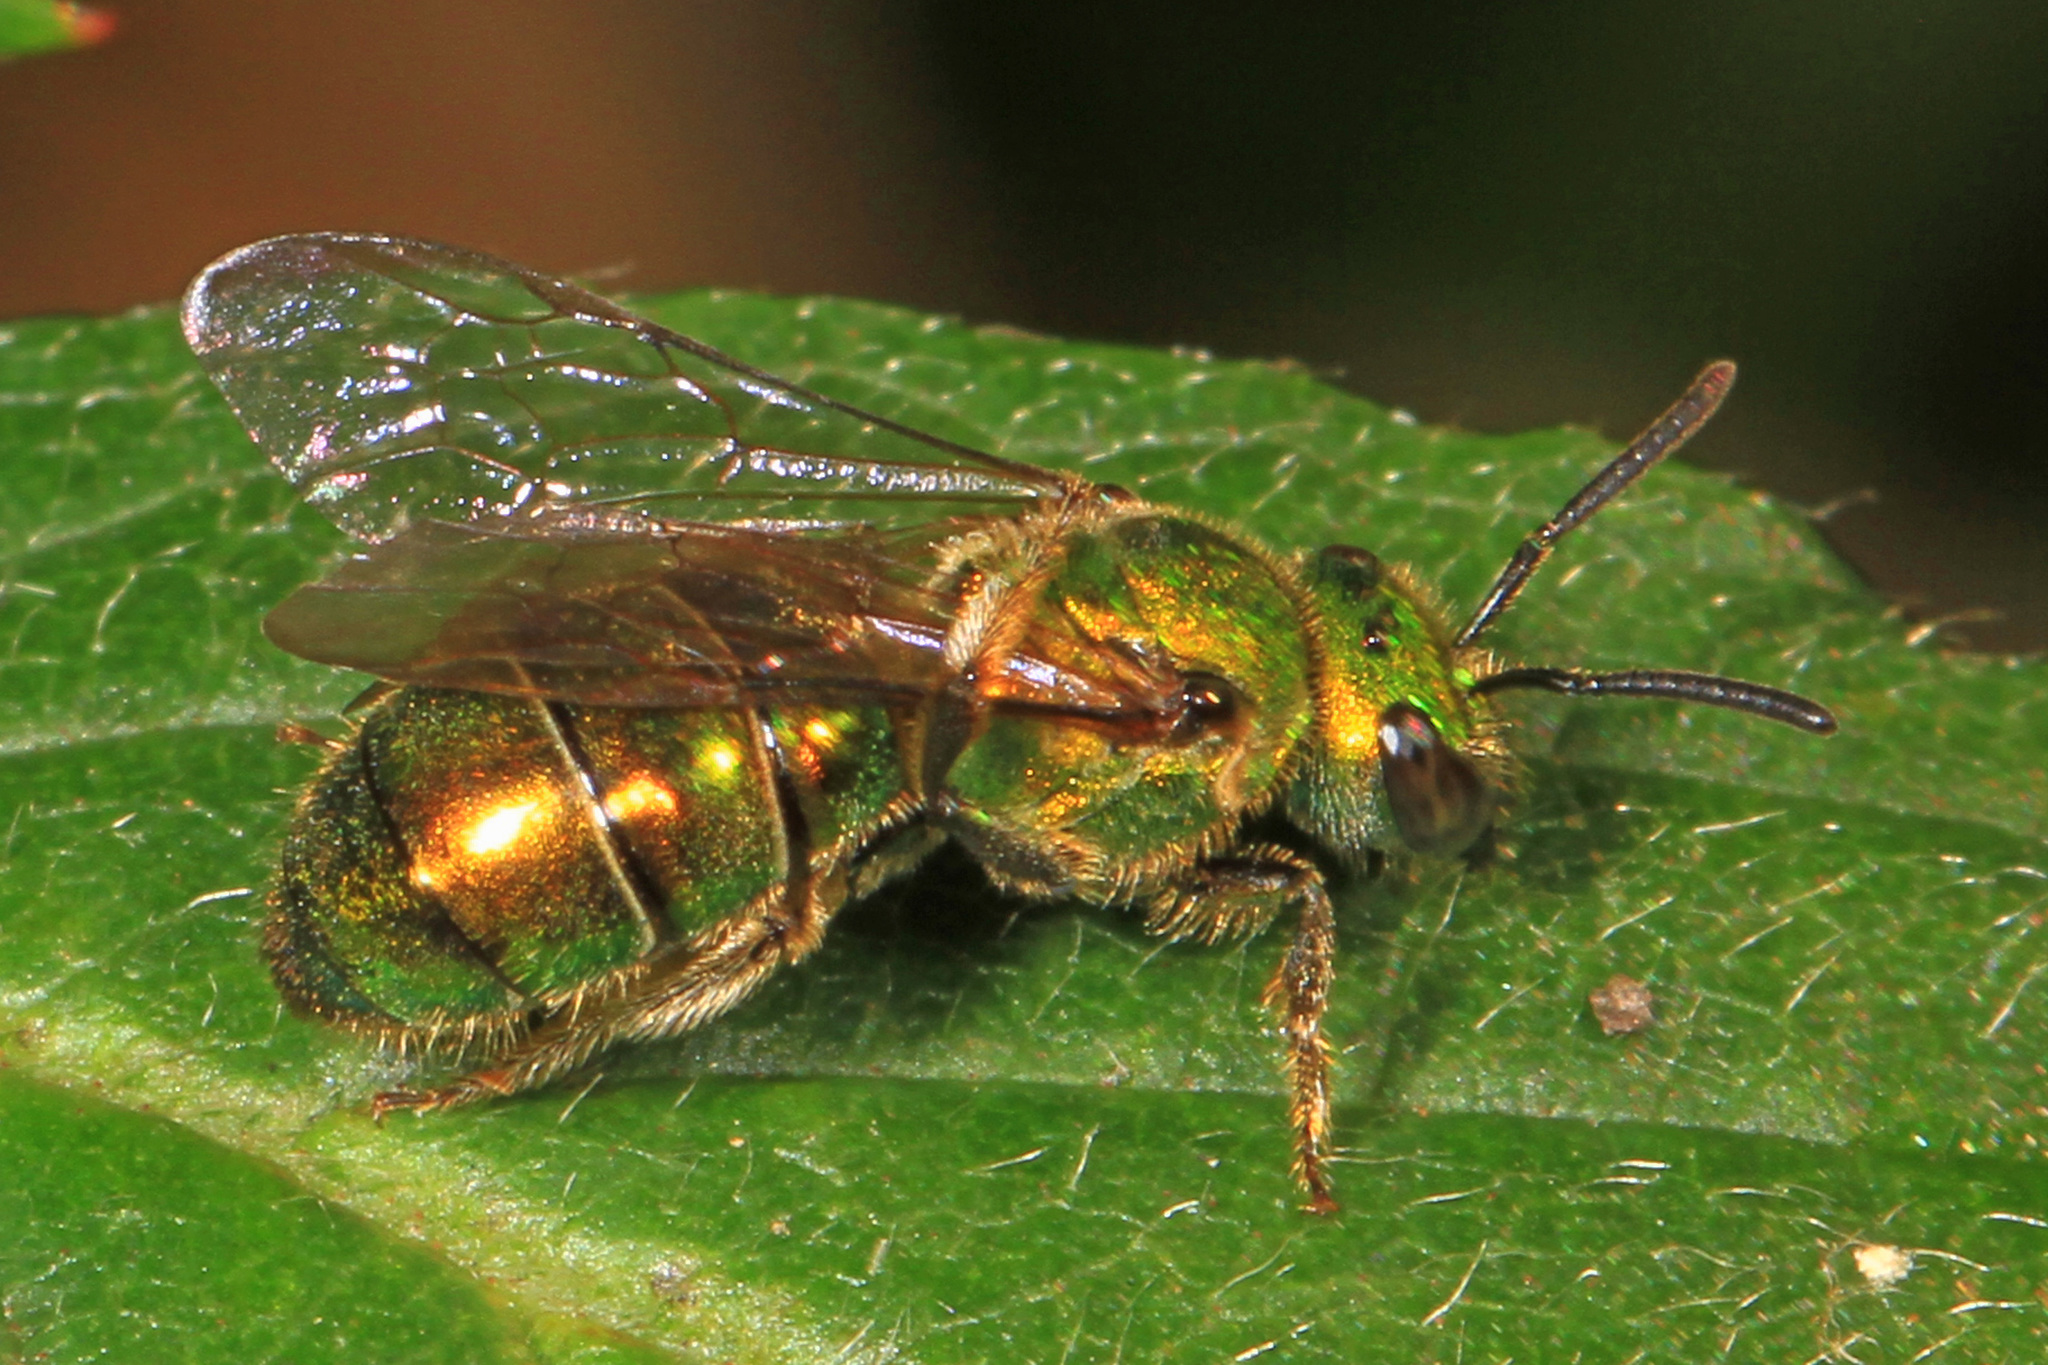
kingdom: Animalia
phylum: Arthropoda
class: Insecta
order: Hymenoptera
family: Halictidae
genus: Augochlora
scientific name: Augochlora pura
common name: Pure green sweat bee
